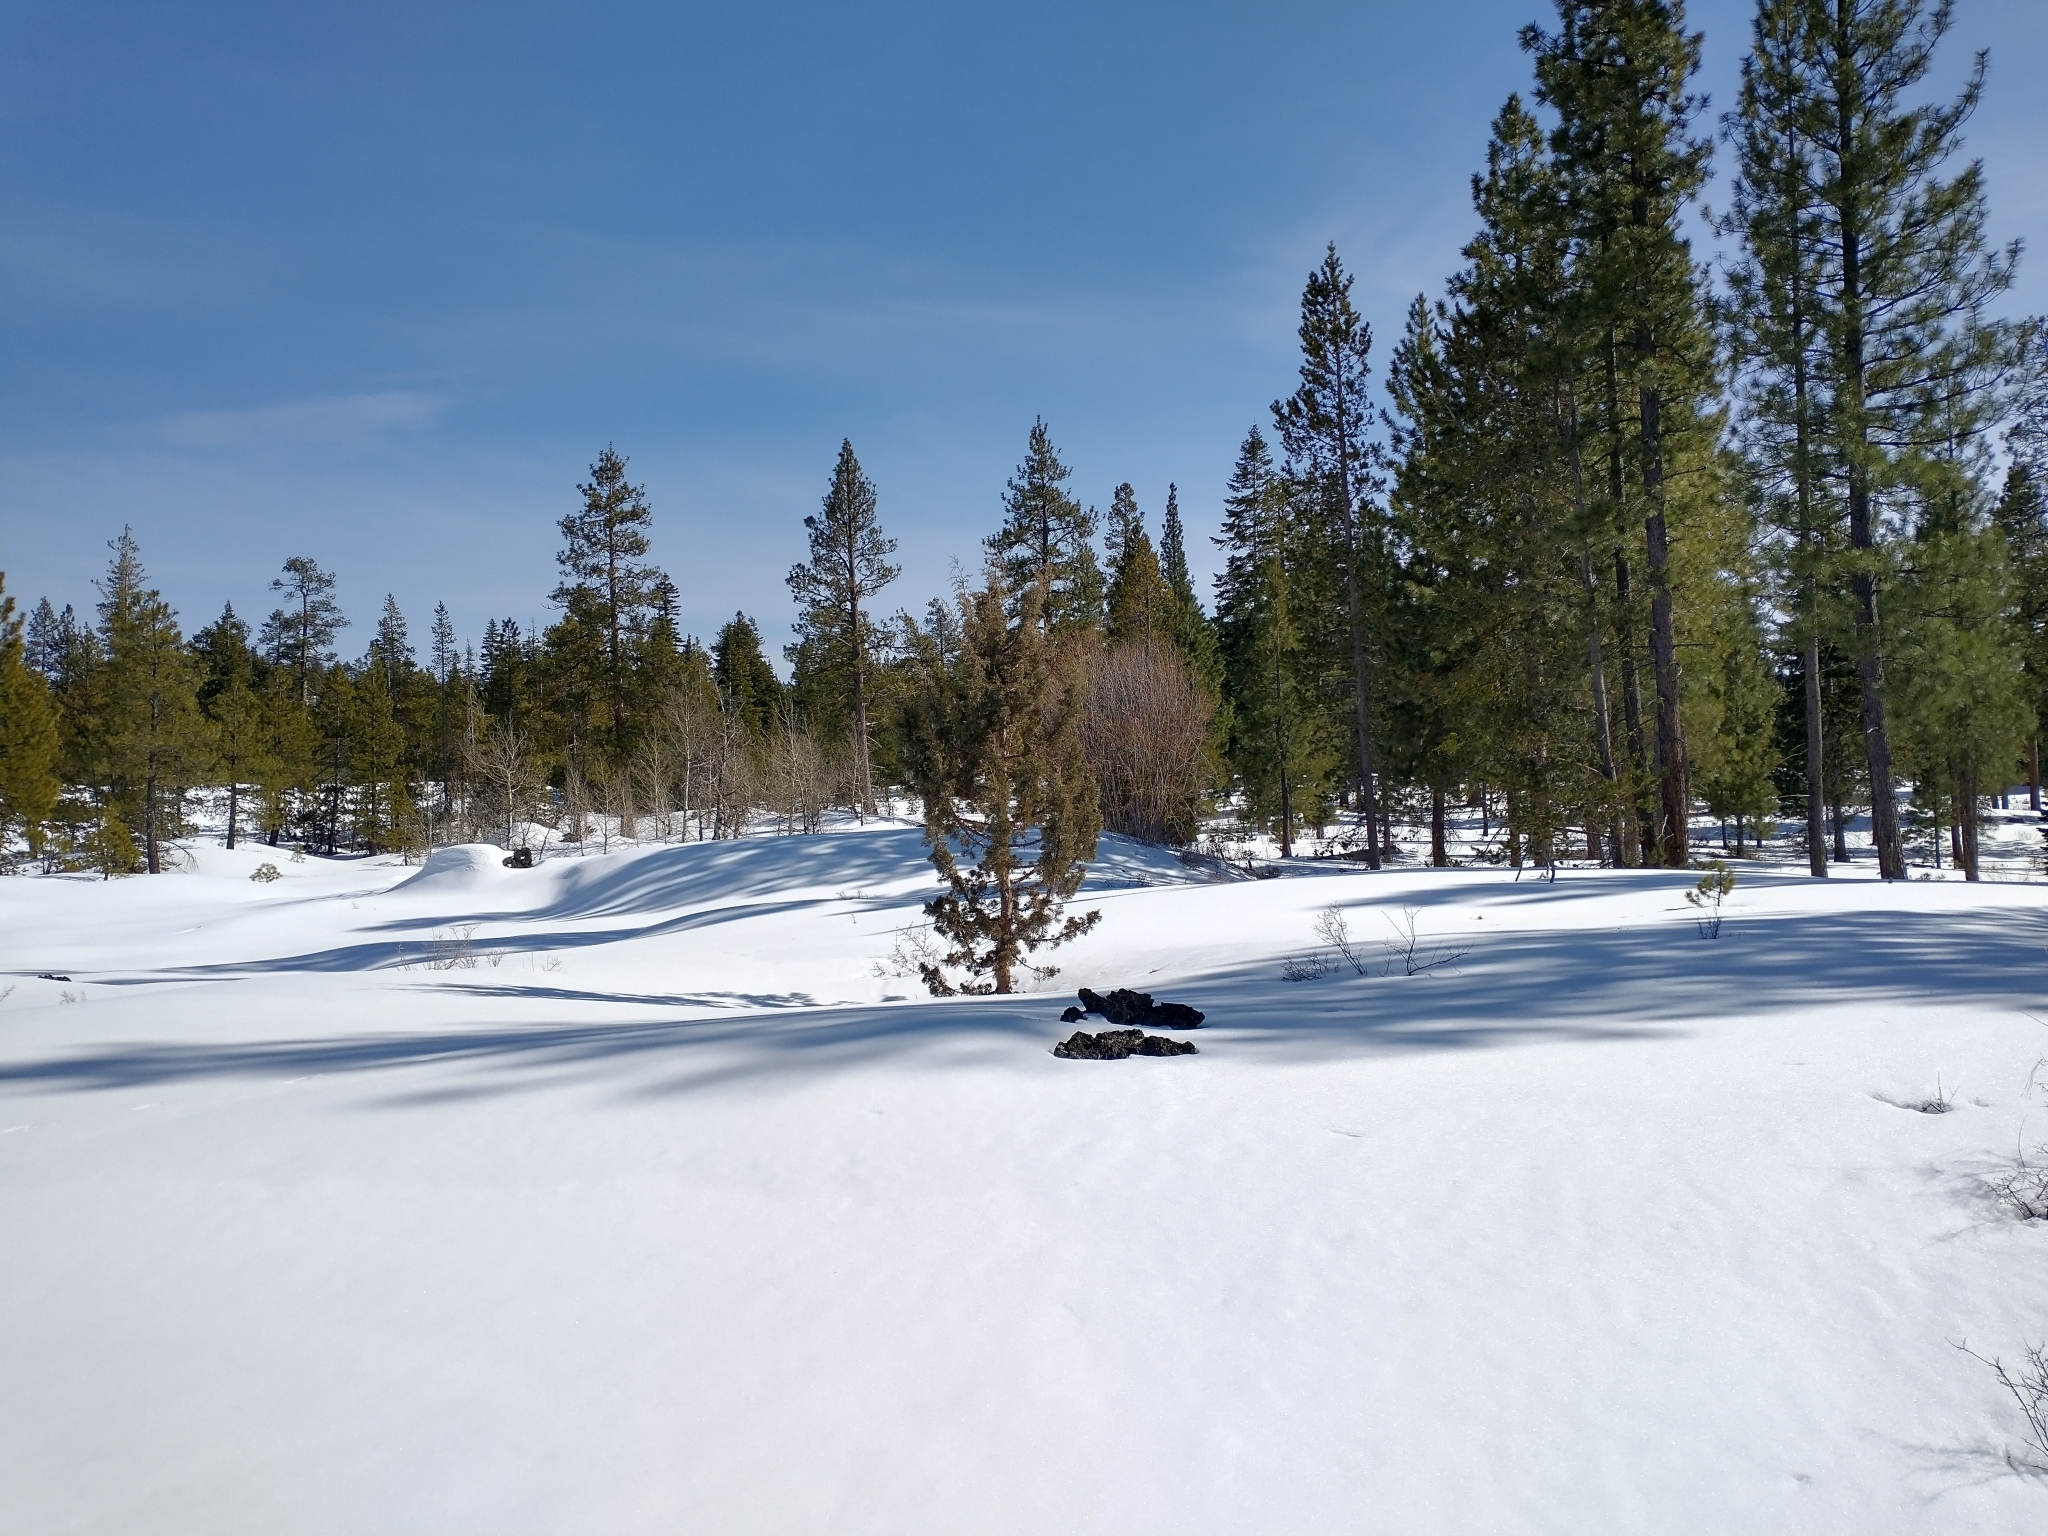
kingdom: Plantae
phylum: Tracheophyta
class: Pinopsida
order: Pinales
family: Cupressaceae
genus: Juniperus
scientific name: Juniperus occidentalis
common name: Western juniper
